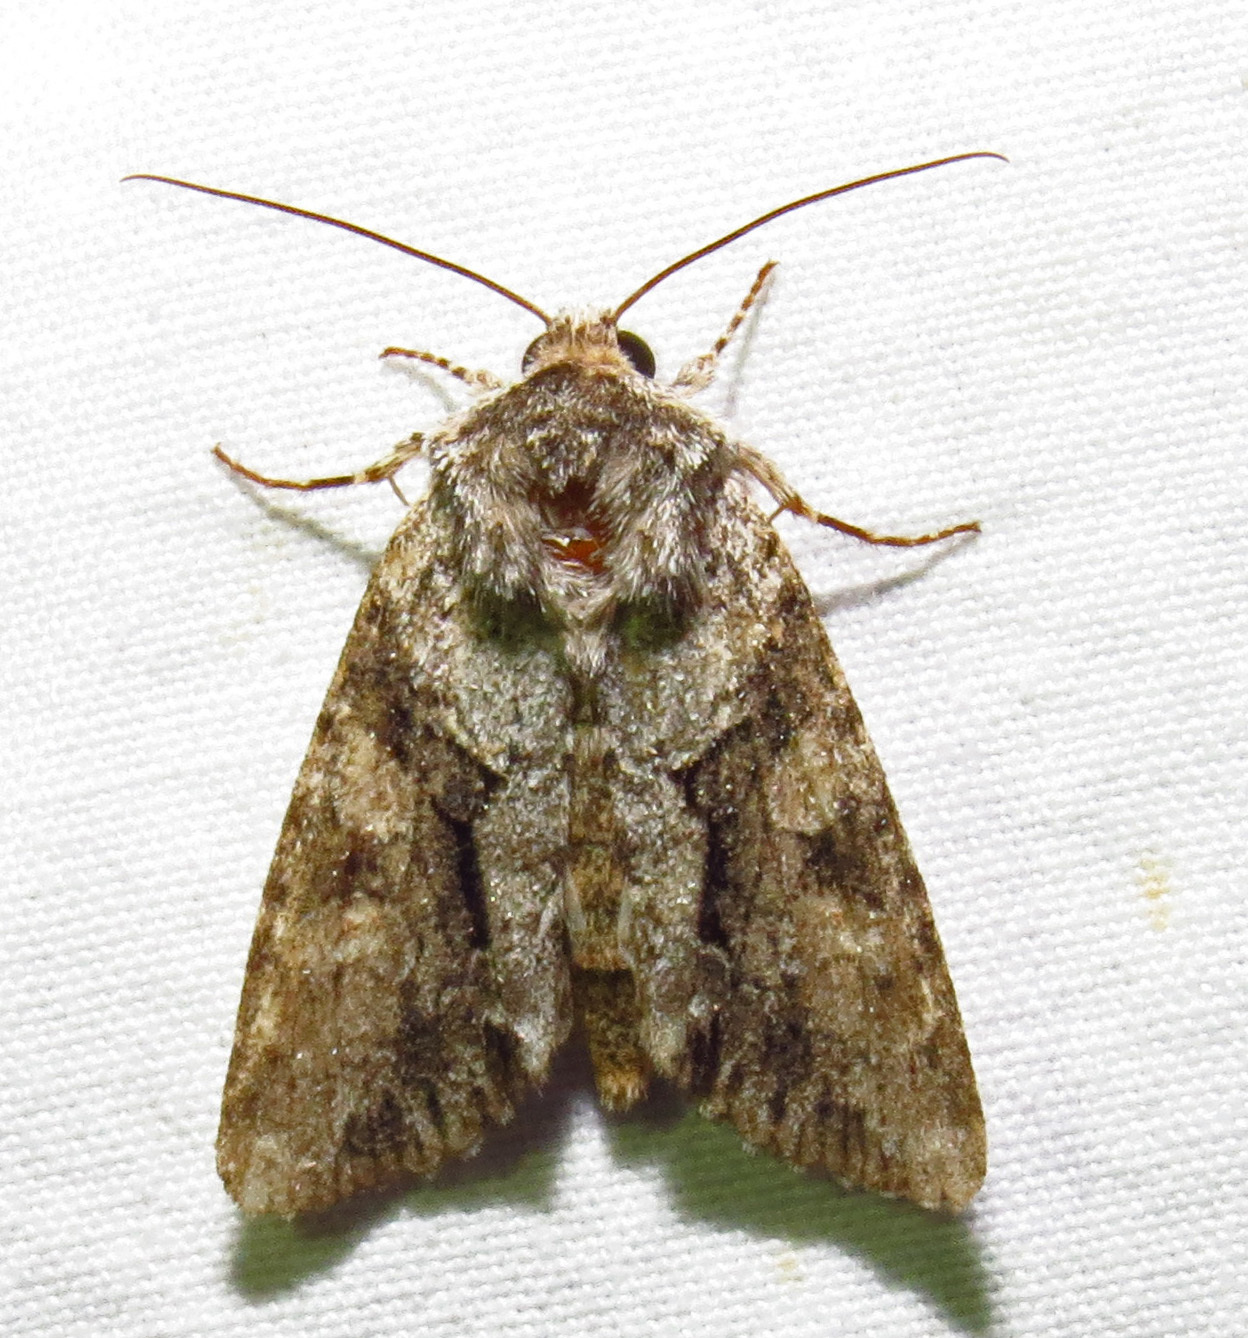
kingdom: Animalia
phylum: Arthropoda
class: Insecta
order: Lepidoptera
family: Noctuidae
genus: Achatia
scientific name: Achatia distincta
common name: Distinct quaker
